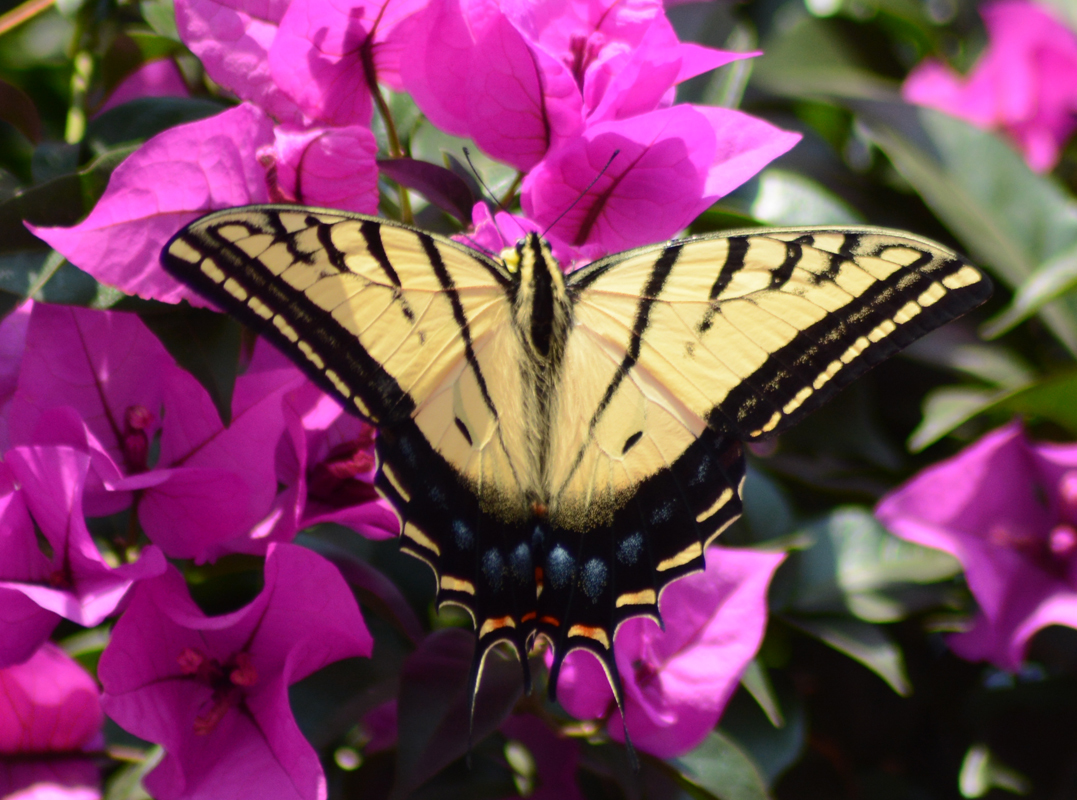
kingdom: Animalia
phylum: Arthropoda
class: Insecta
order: Lepidoptera
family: Papilionidae
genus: Papilio
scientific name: Papilio multicaudata
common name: Two-tailed tiger swallowtail
